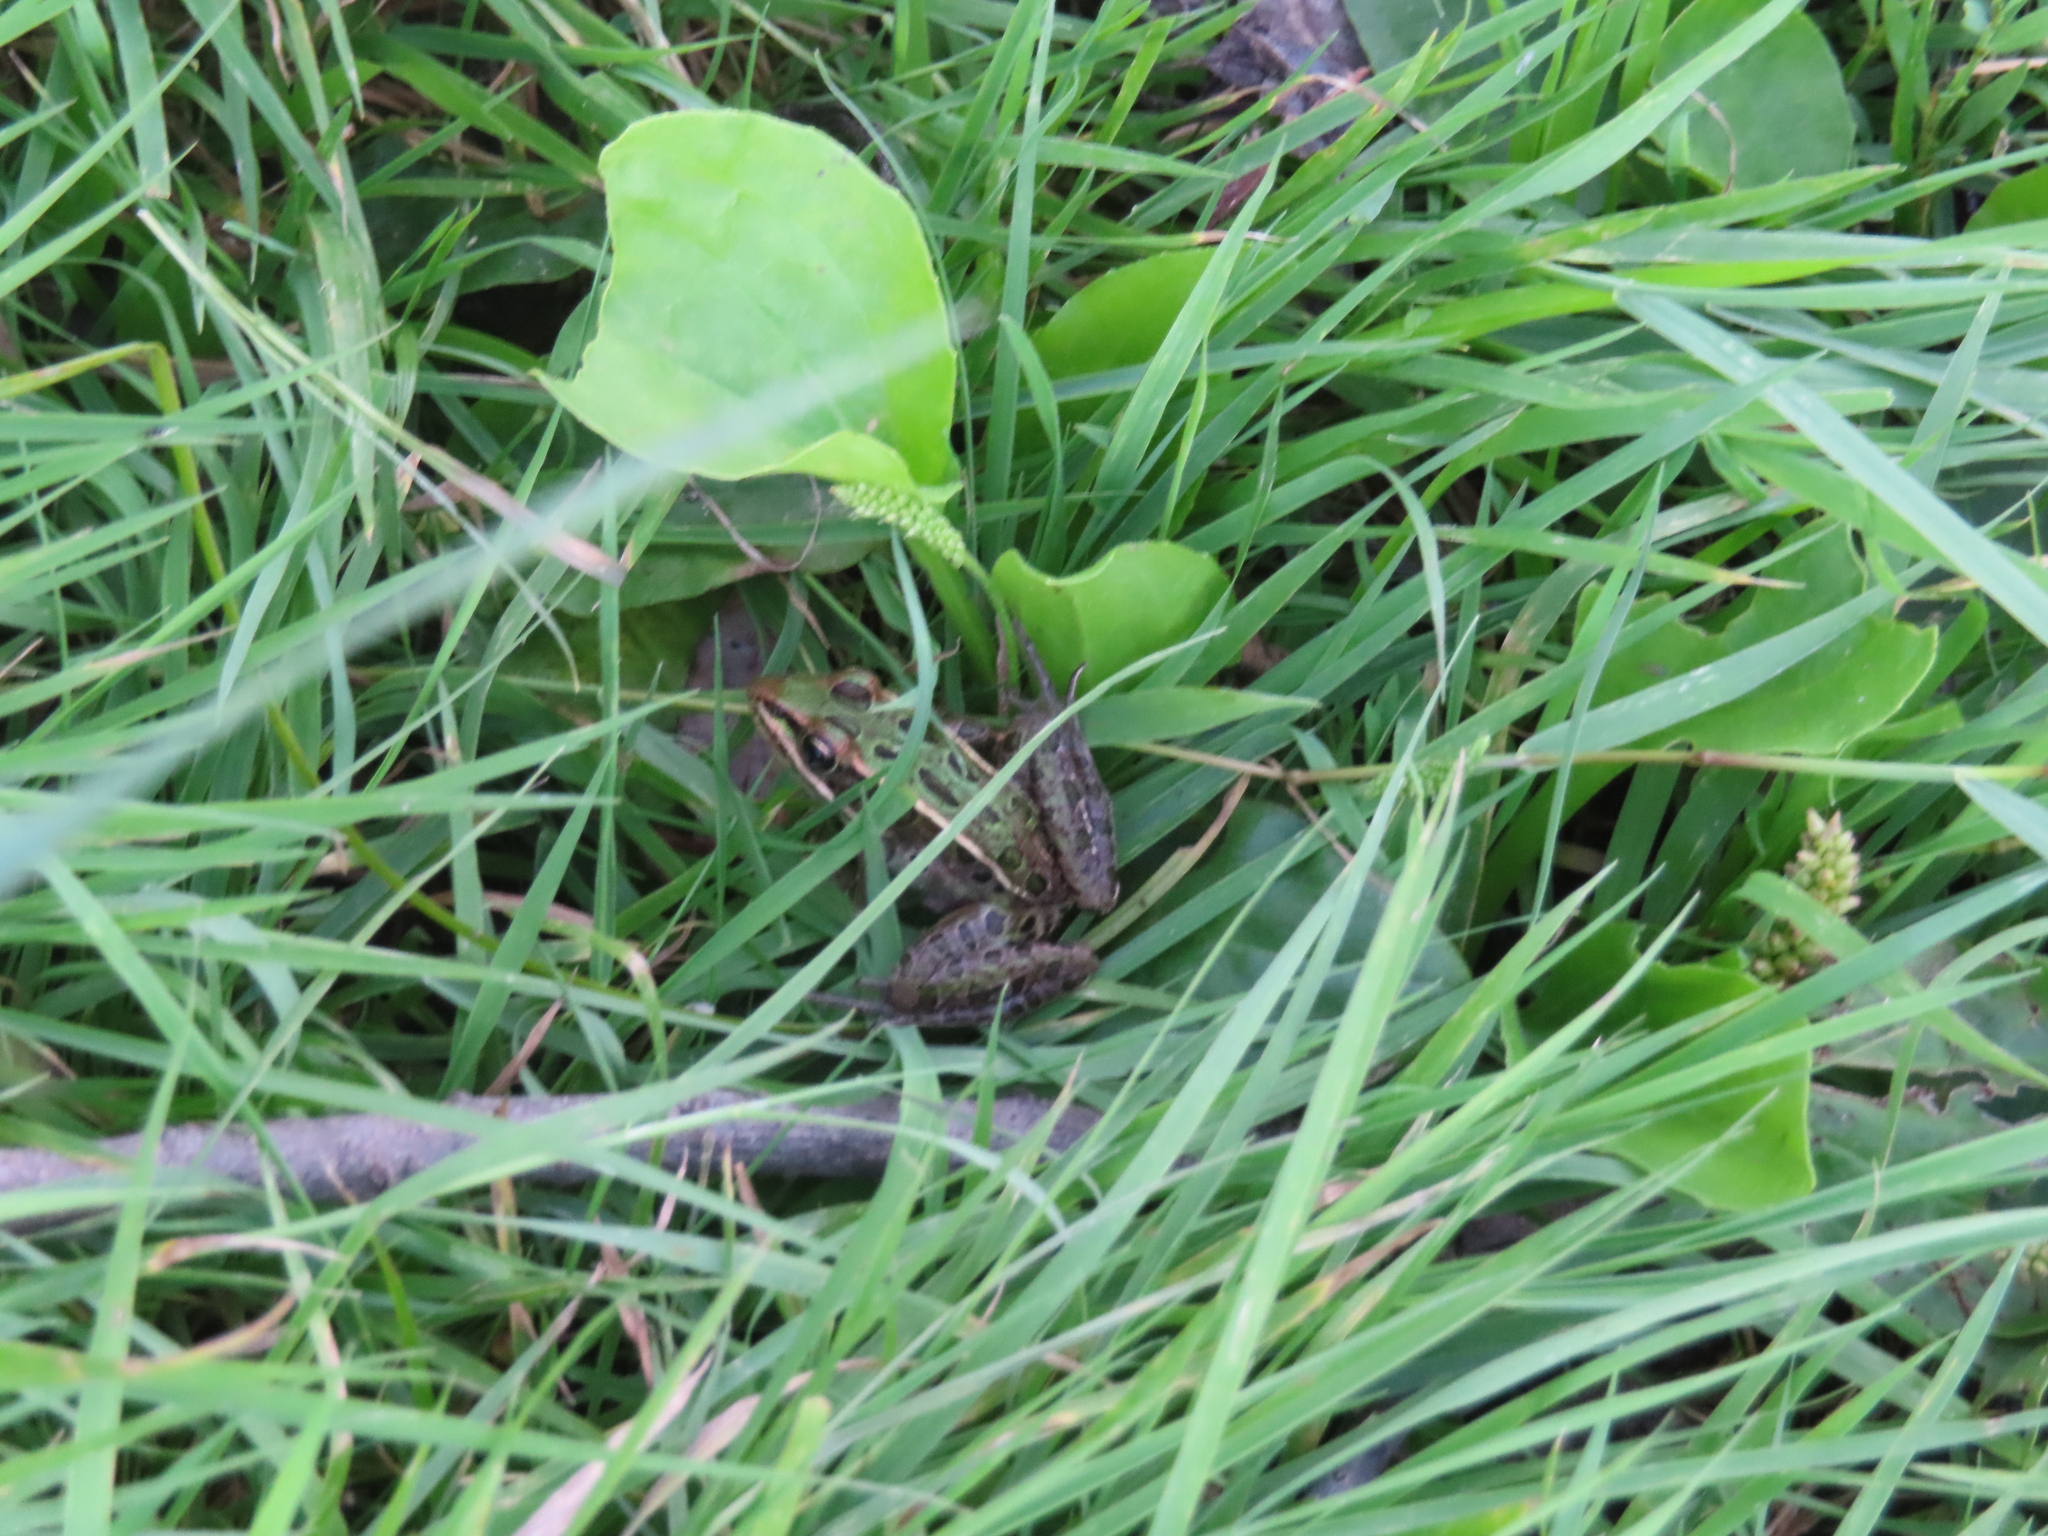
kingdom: Animalia
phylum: Chordata
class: Amphibia
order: Anura
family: Ranidae
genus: Lithobates
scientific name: Lithobates pipiens
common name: Northern leopard frog
